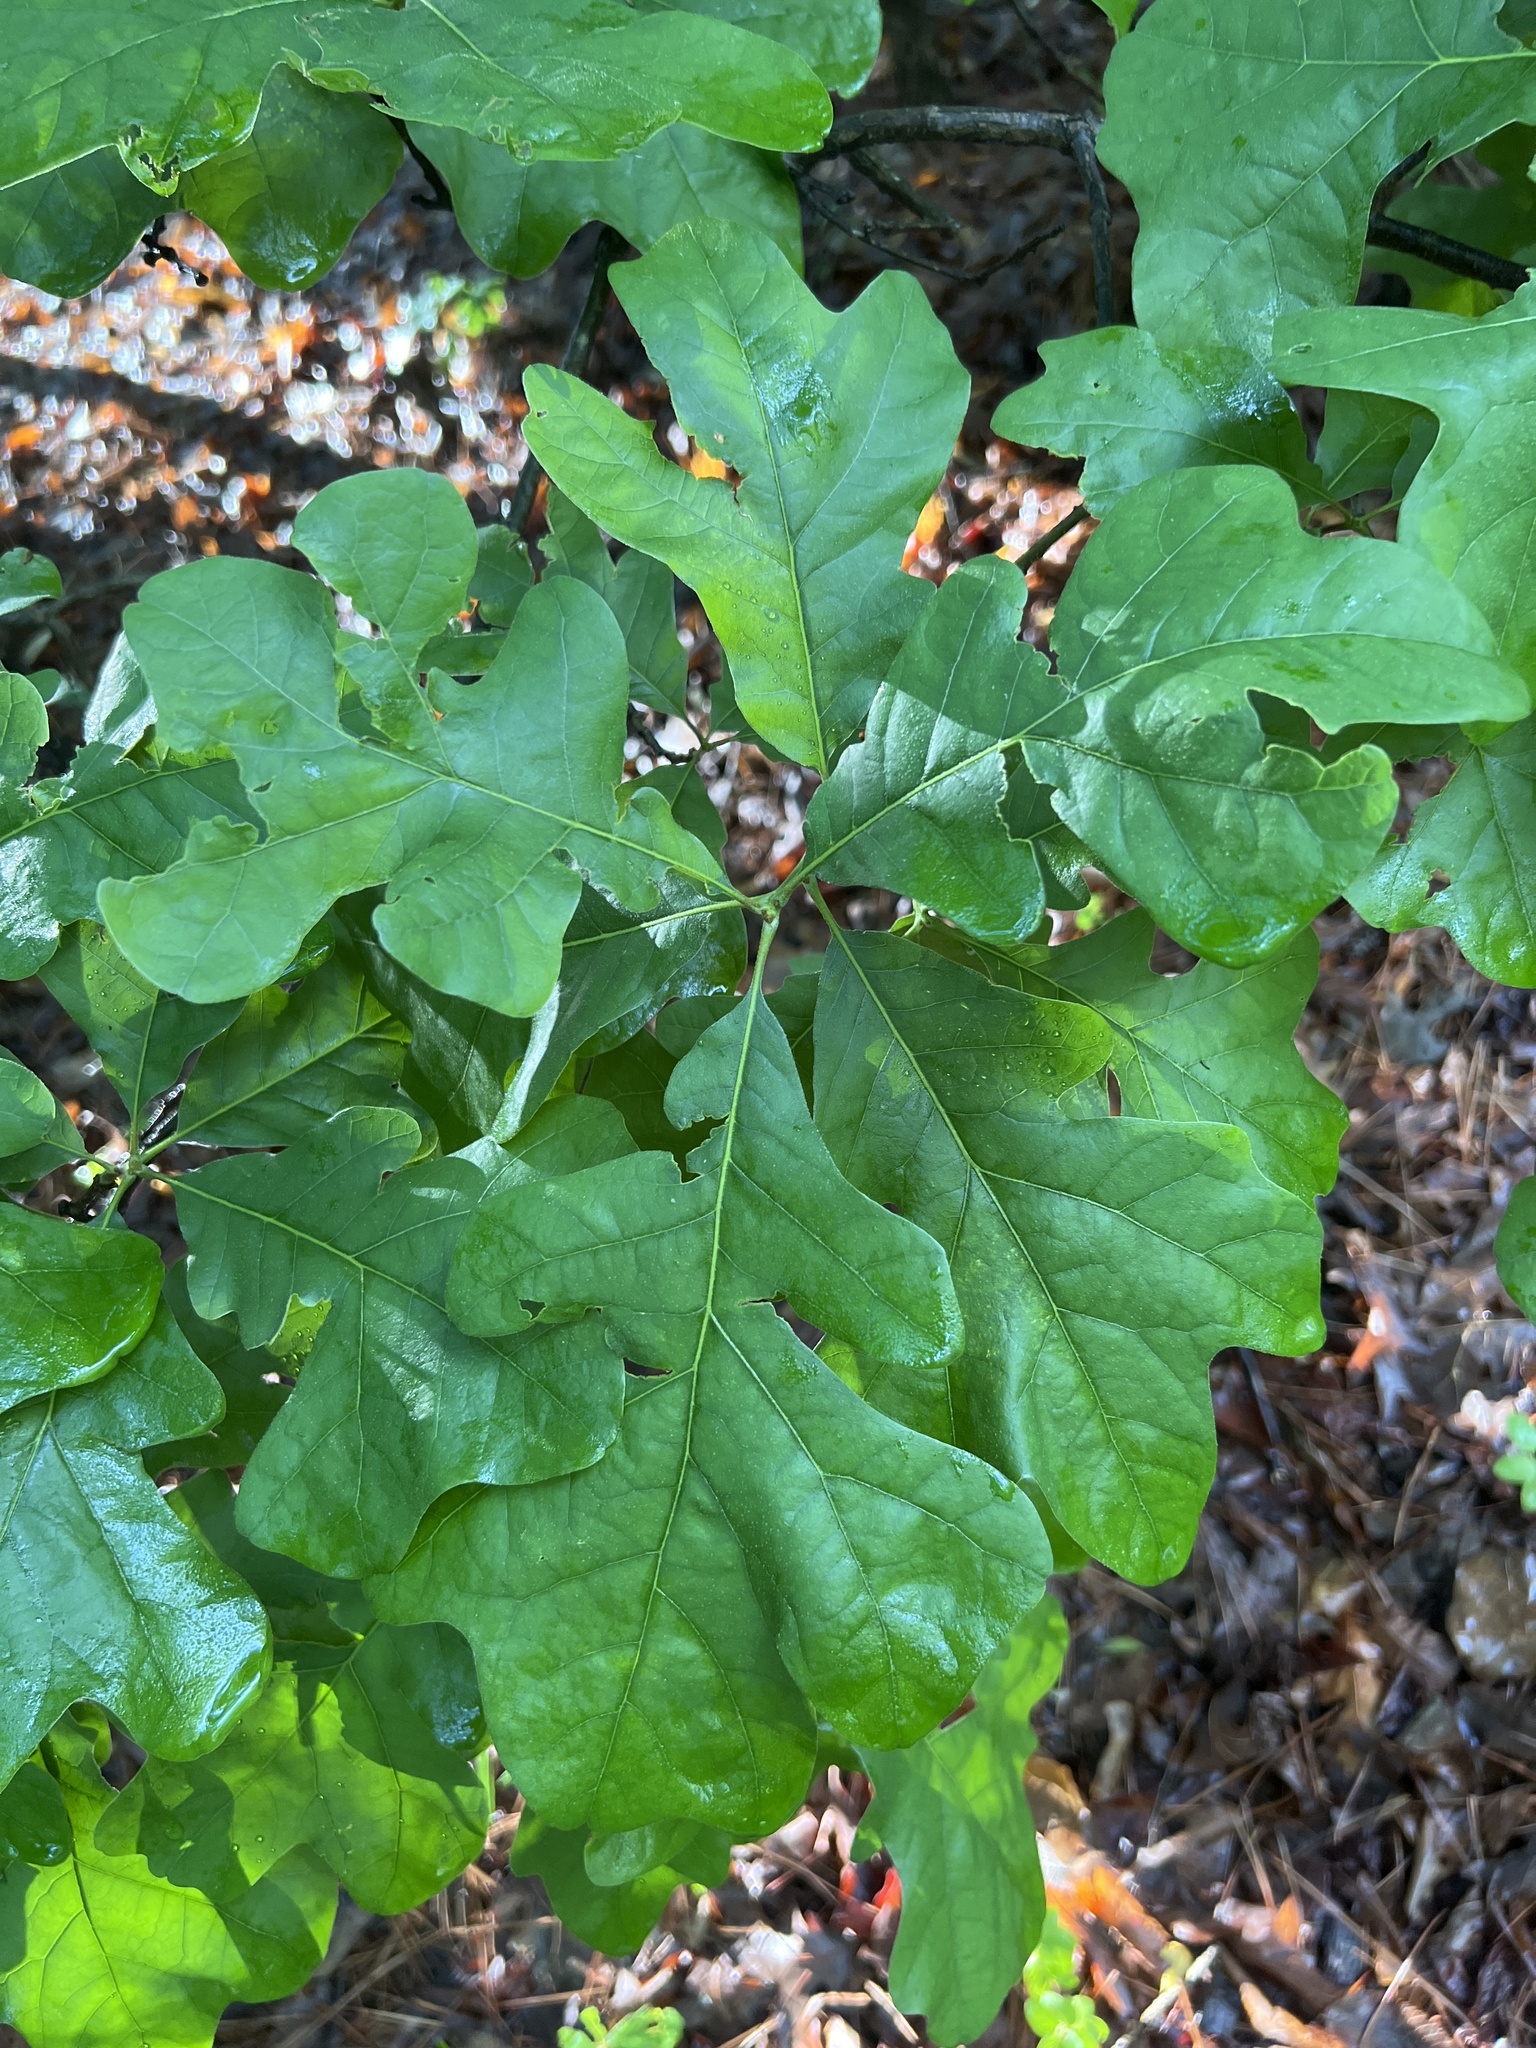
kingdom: Plantae
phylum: Tracheophyta
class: Magnoliopsida
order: Fagales
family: Fagaceae
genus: Quercus
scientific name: Quercus stellata
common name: Post oak
